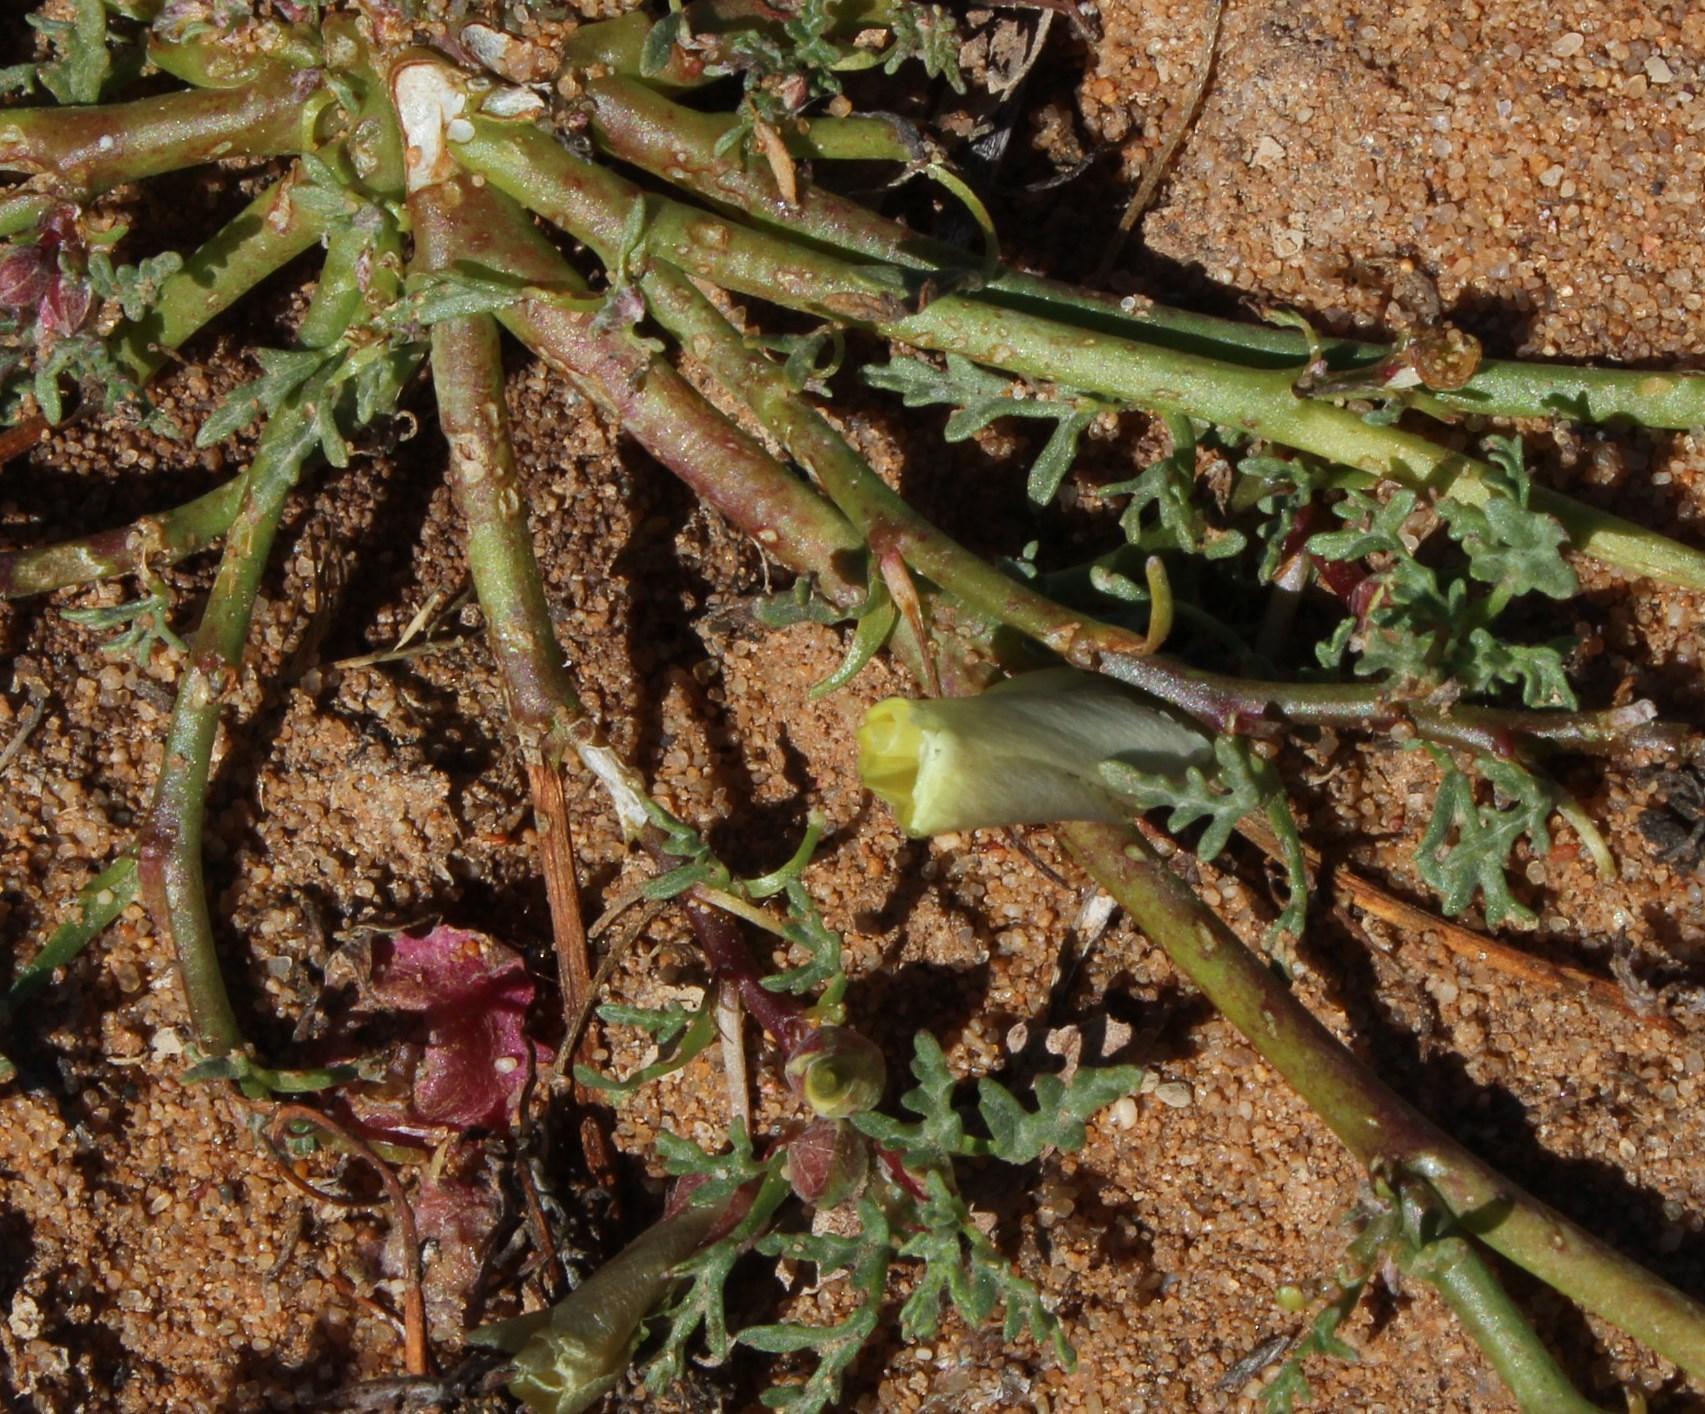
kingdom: Plantae
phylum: Tracheophyta
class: Magnoliopsida
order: Malvales
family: Neuradaceae
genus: Grielum
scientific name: Grielum humifusum
